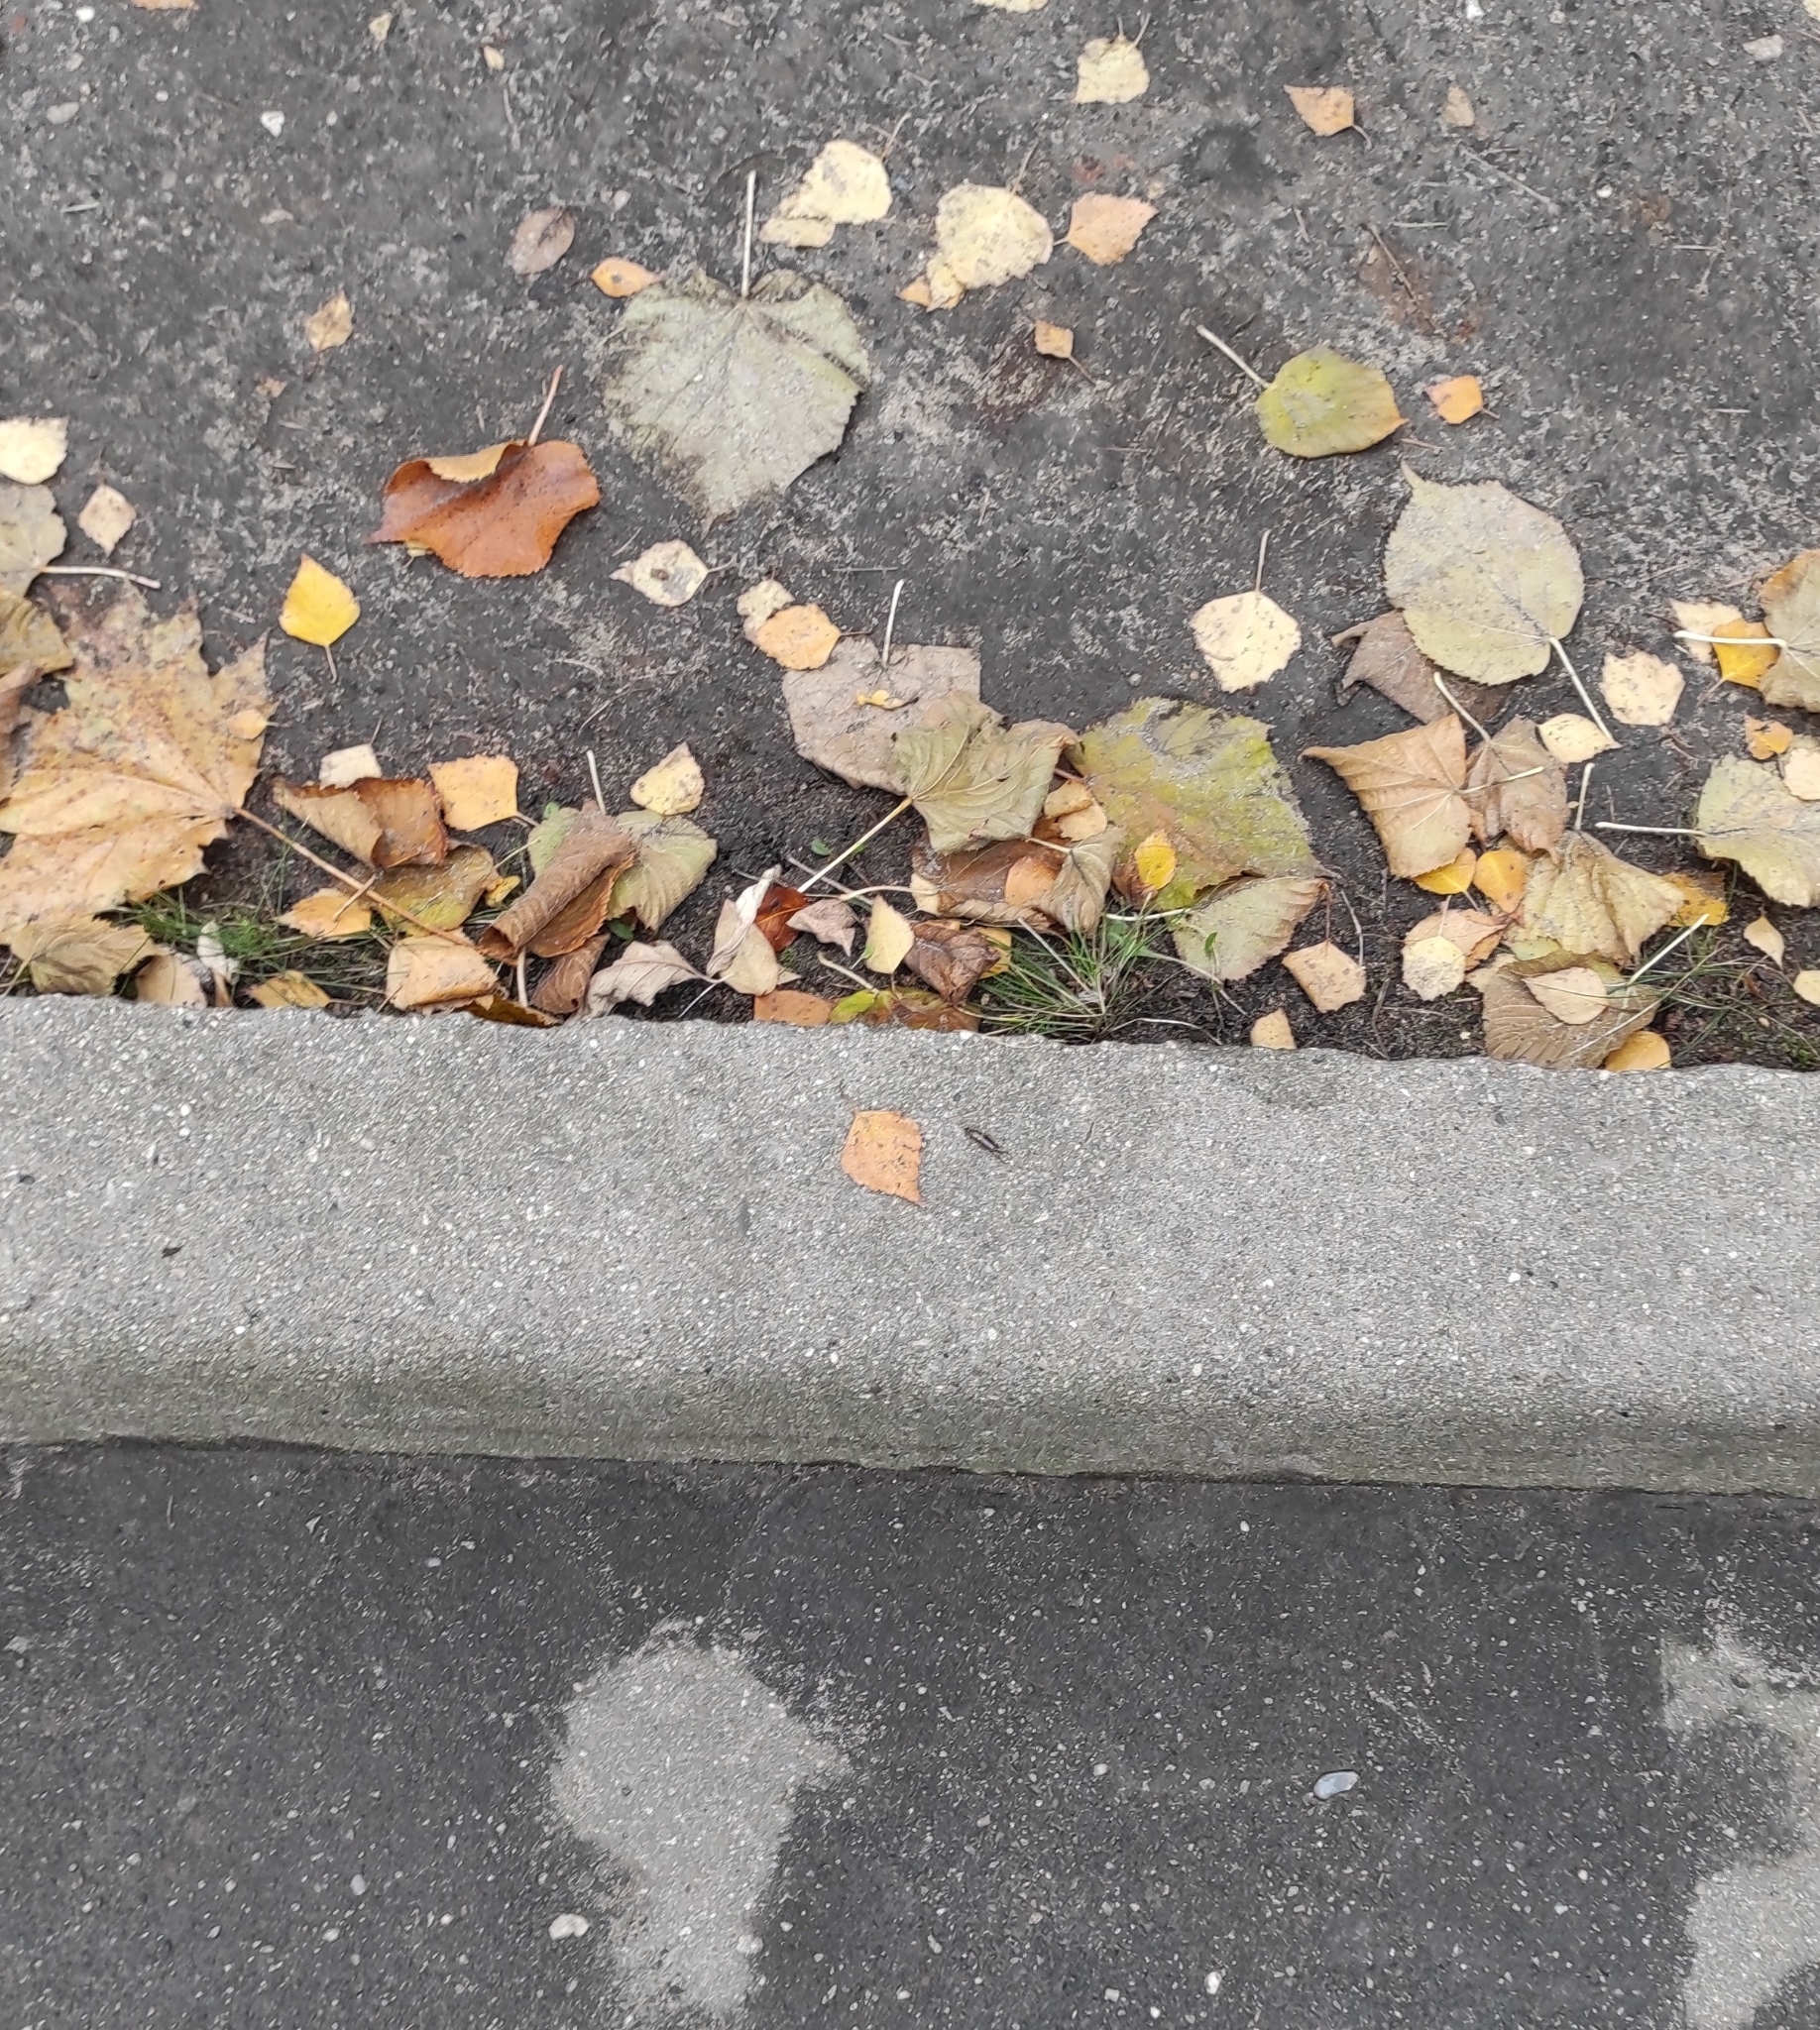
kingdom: Animalia
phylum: Arthropoda
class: Insecta
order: Dermaptera
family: Forficulidae
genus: Forficula
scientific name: Forficula auricularia
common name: European earwig
